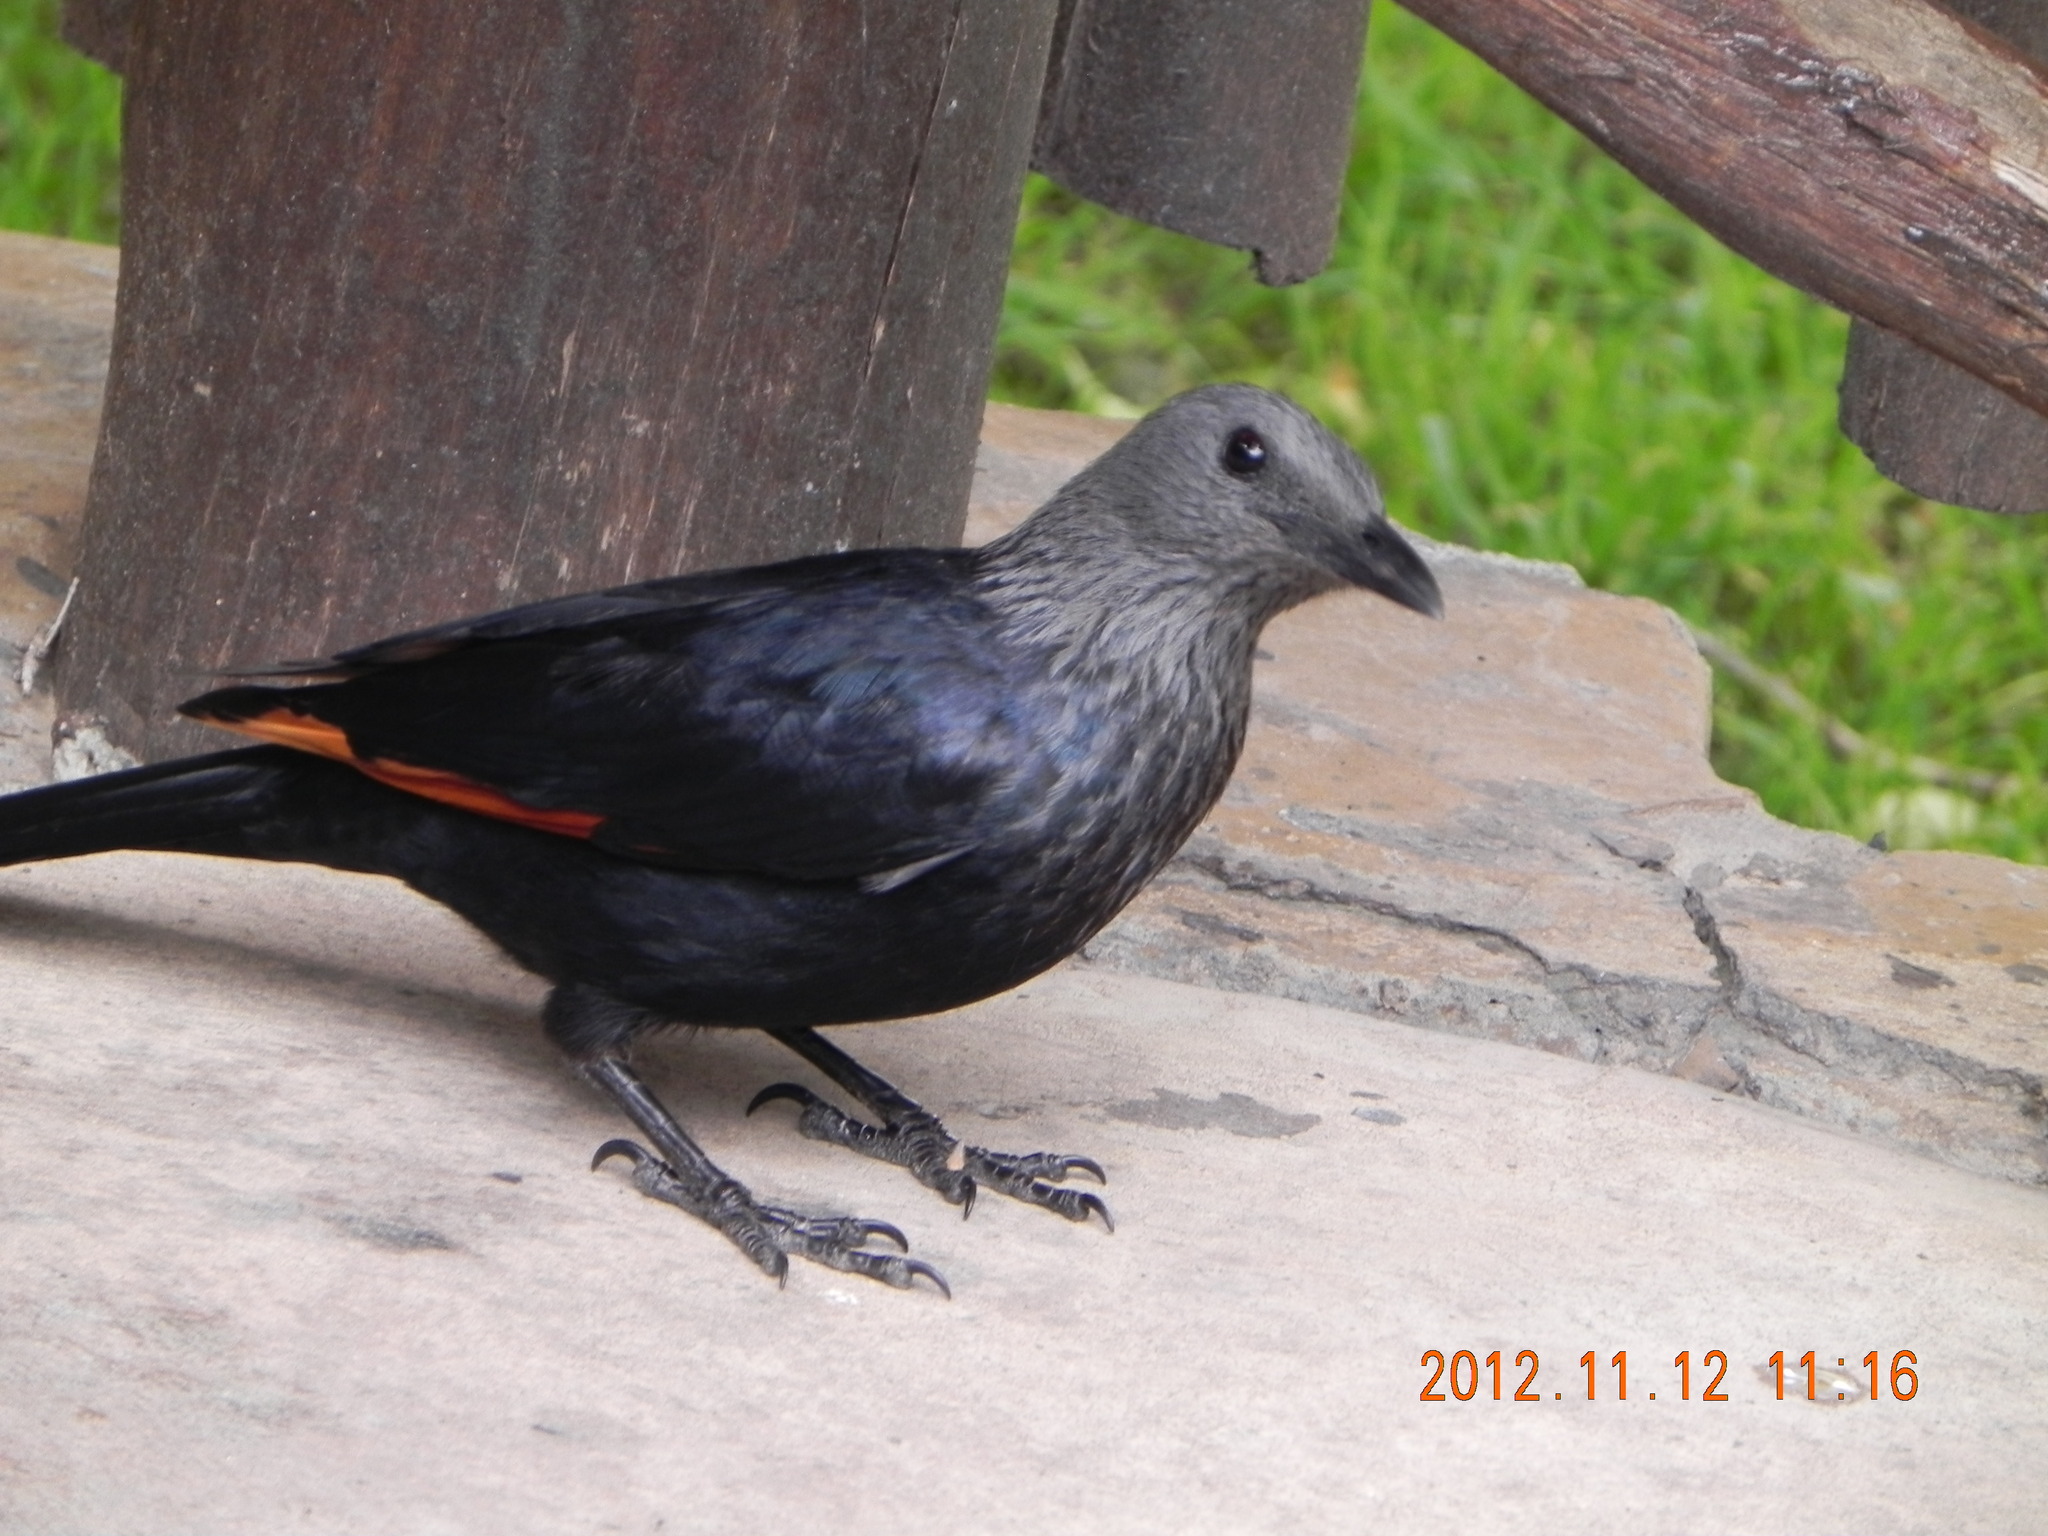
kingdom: Animalia
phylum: Chordata
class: Aves
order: Passeriformes
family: Sturnidae
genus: Onychognathus
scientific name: Onychognathus morio
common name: Red-winged starling
